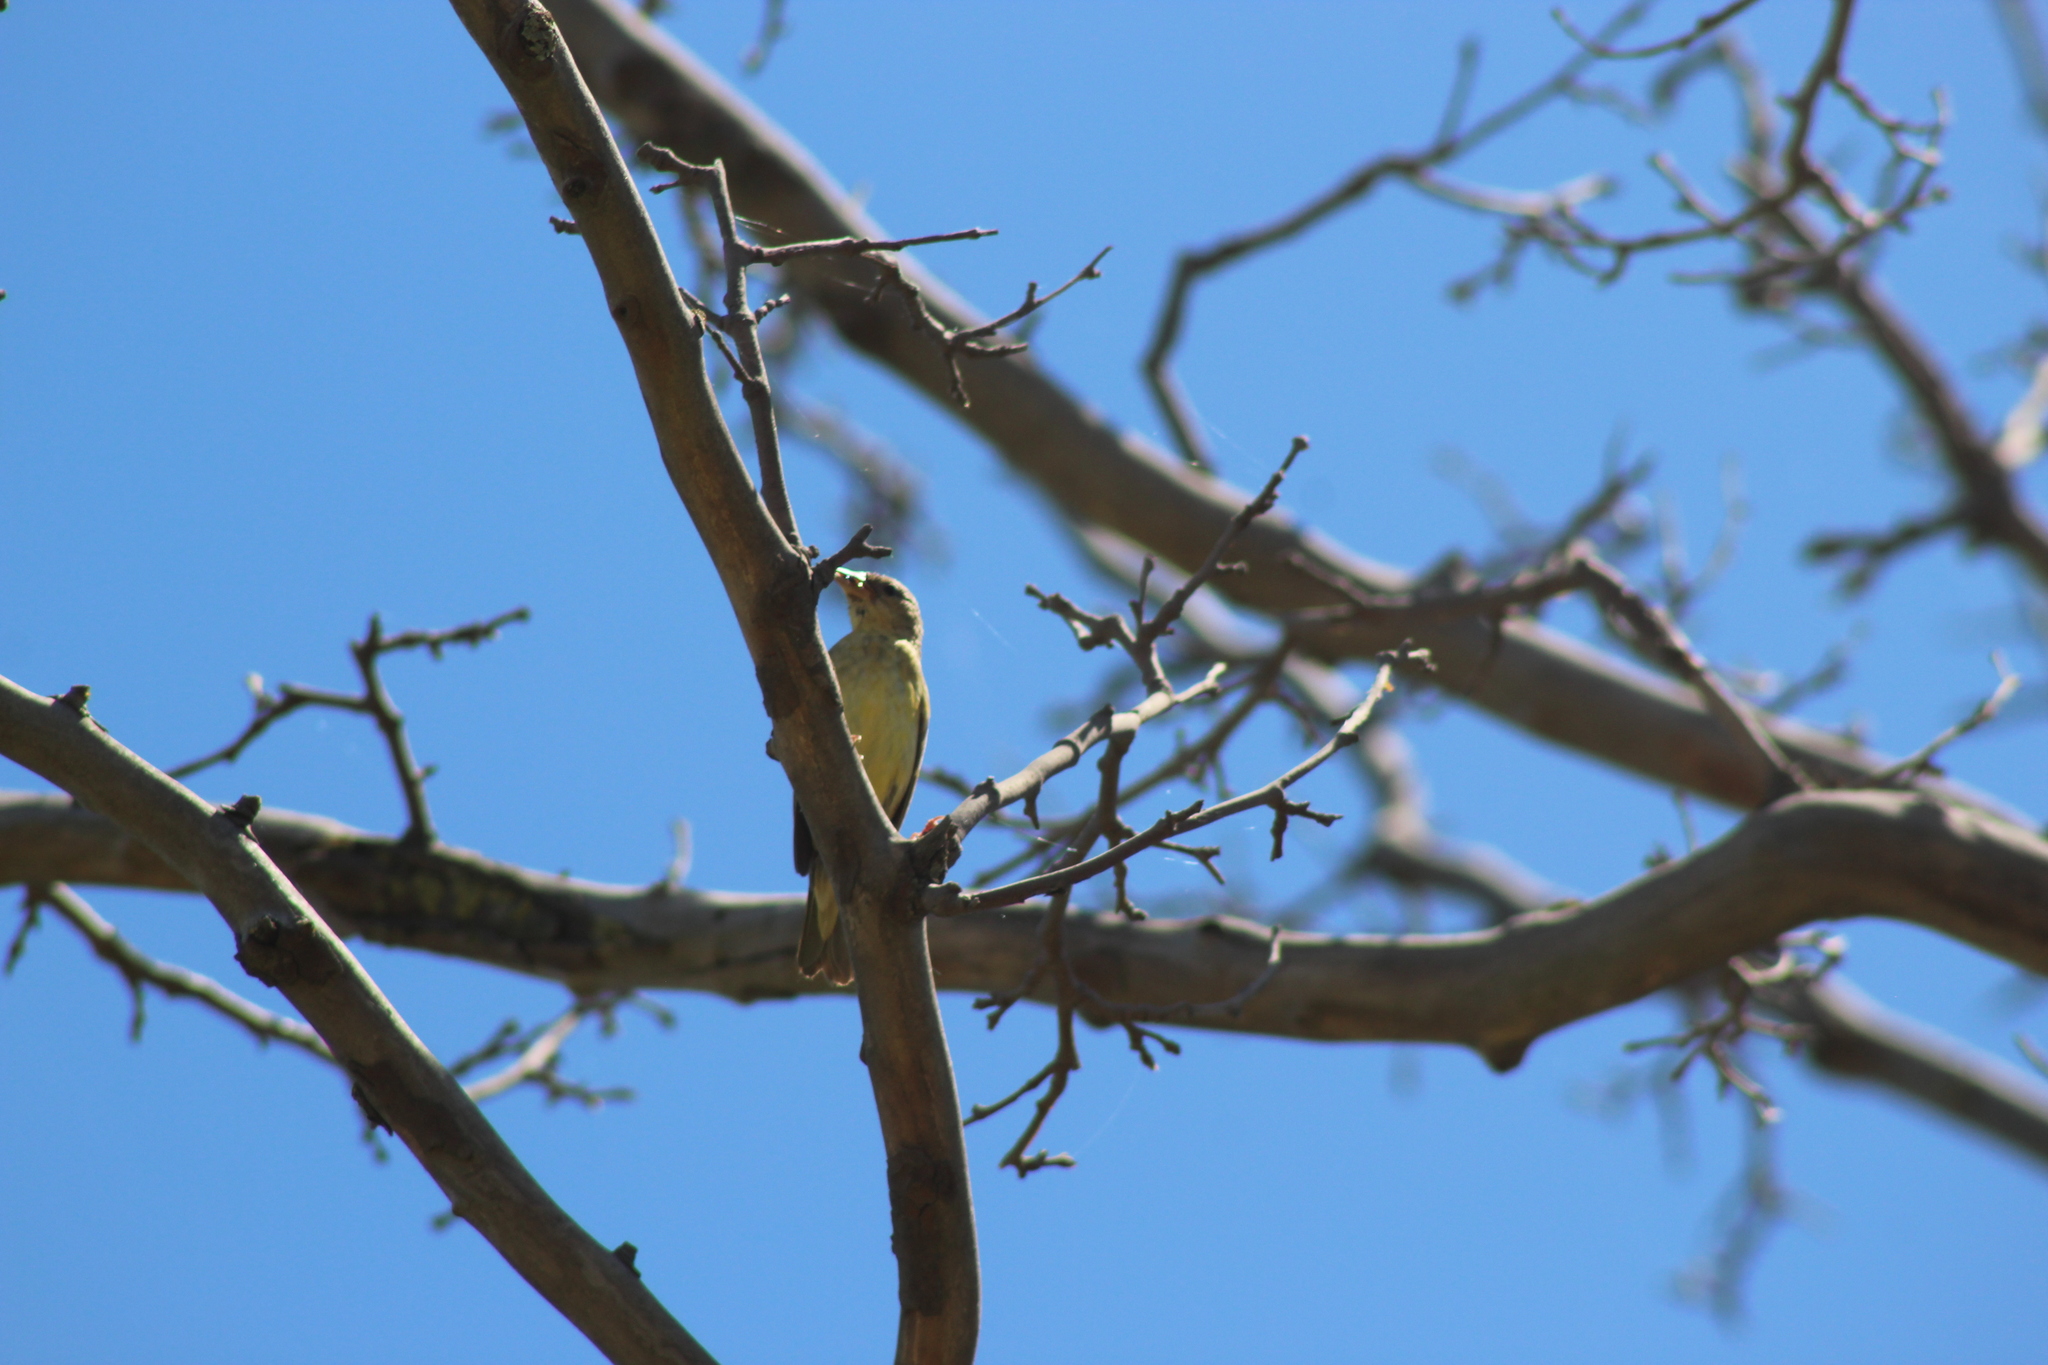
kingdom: Animalia
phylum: Chordata
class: Aves
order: Passeriformes
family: Ploceidae
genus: Ploceus
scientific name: Ploceus capensis
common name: Cape weaver
